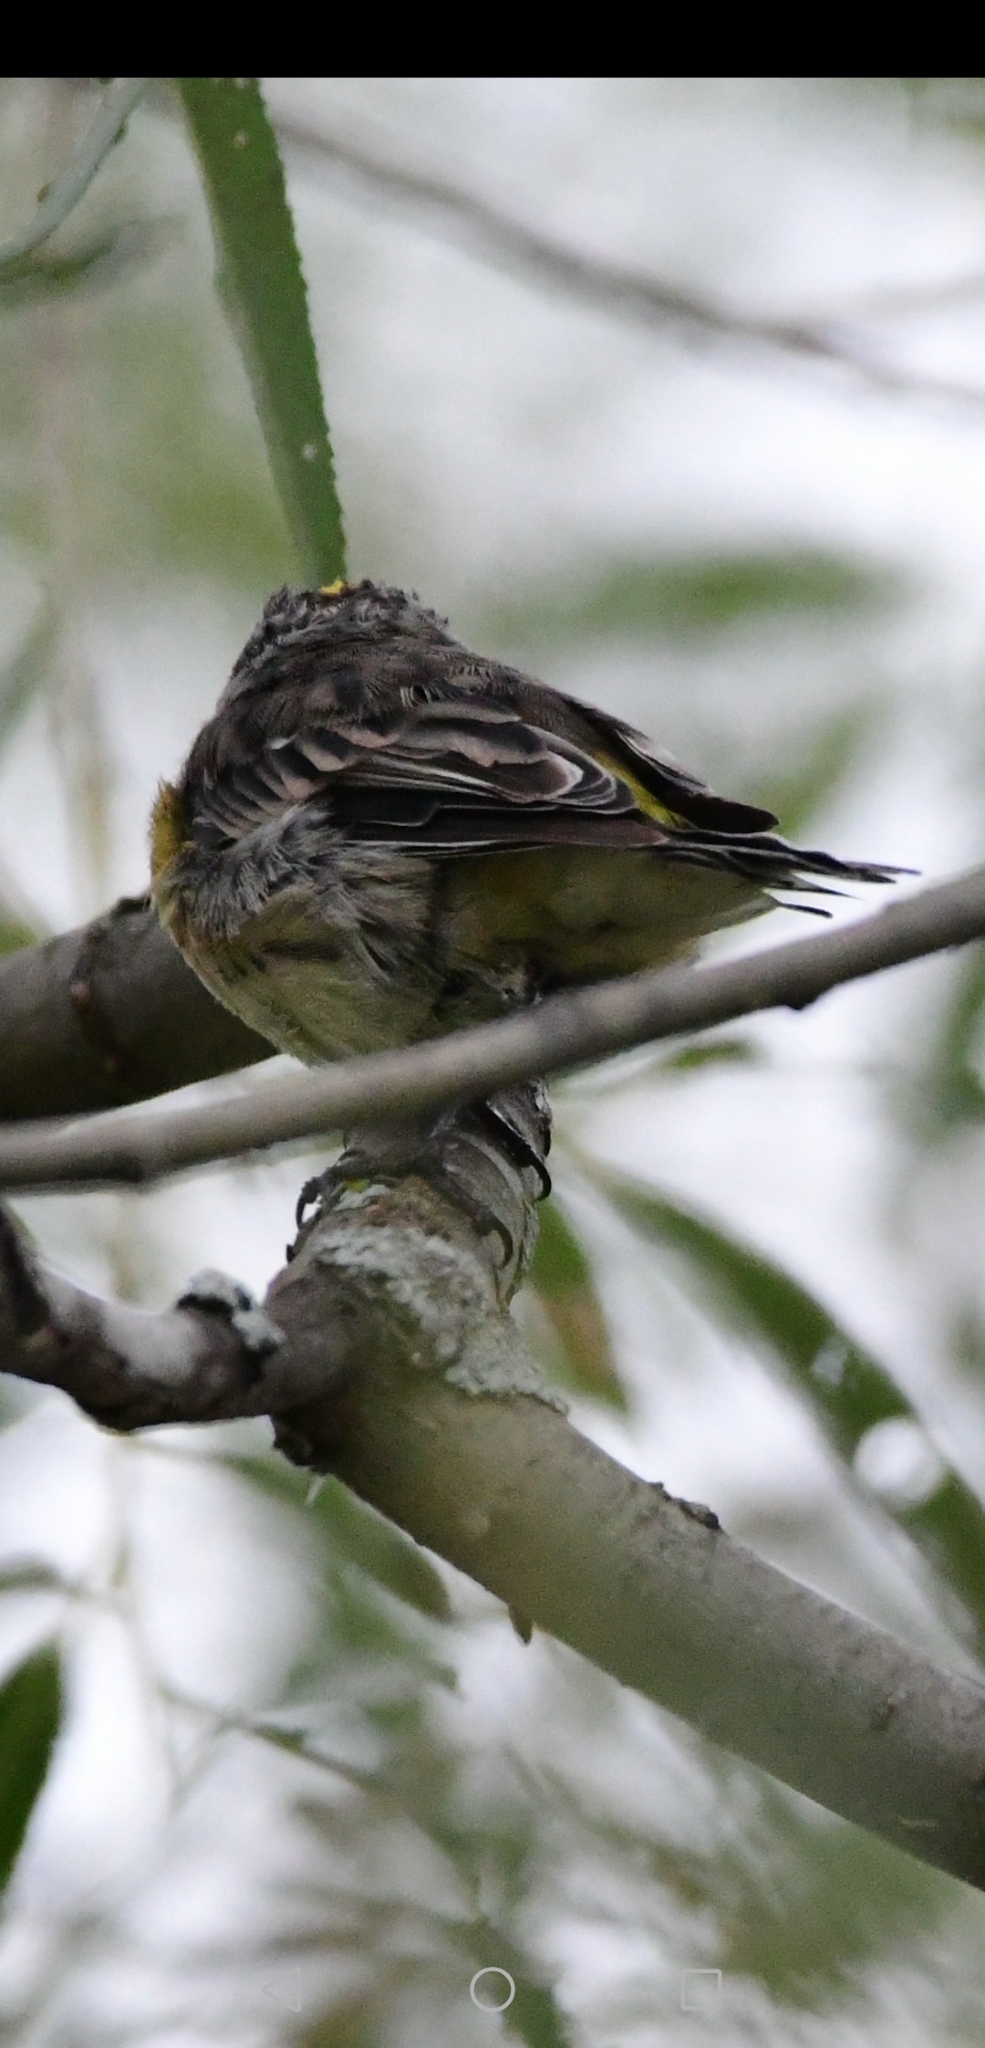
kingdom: Animalia
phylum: Chordata
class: Aves
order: Passeriformes
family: Parulidae
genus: Setophaga
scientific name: Setophaga coronata
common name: Myrtle warbler
